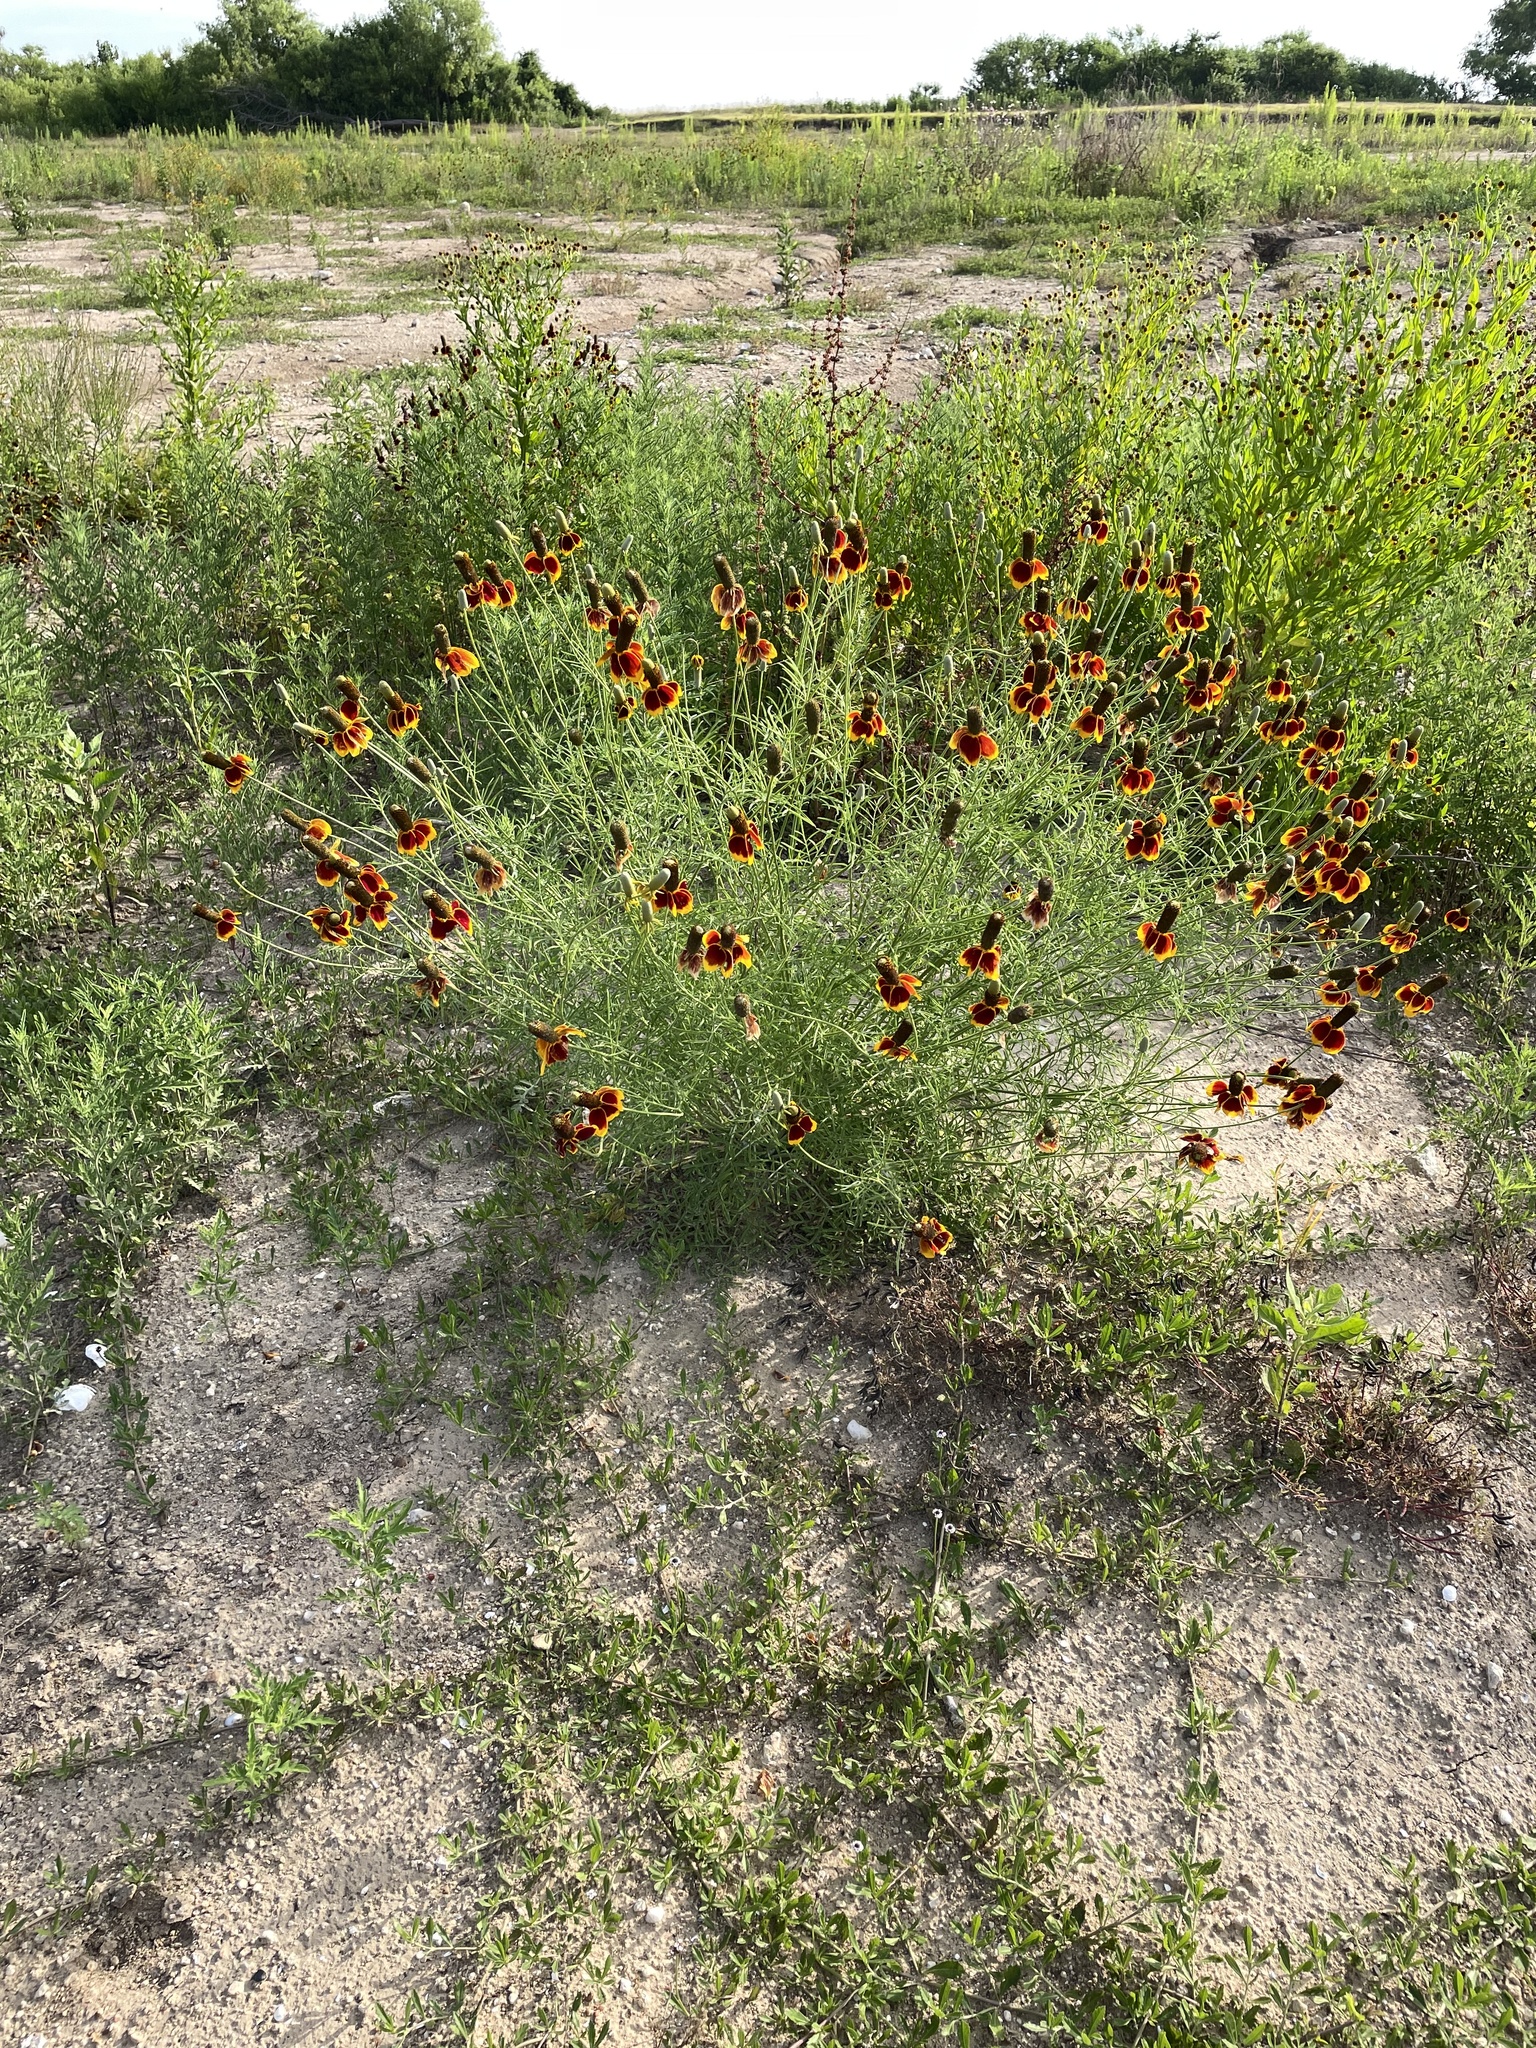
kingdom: Plantae
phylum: Tracheophyta
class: Magnoliopsida
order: Asterales
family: Asteraceae
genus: Ratibida
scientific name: Ratibida columnifera
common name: Prairie coneflower
